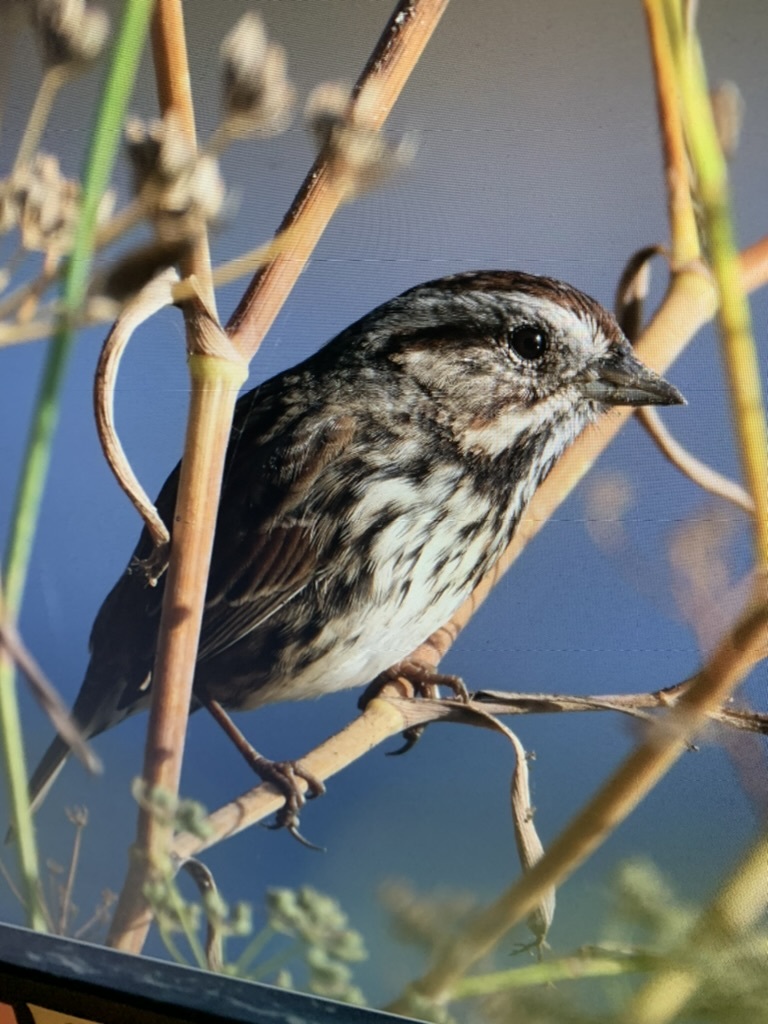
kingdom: Animalia
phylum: Chordata
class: Aves
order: Passeriformes
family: Passerellidae
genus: Melospiza
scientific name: Melospiza melodia
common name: Song sparrow
